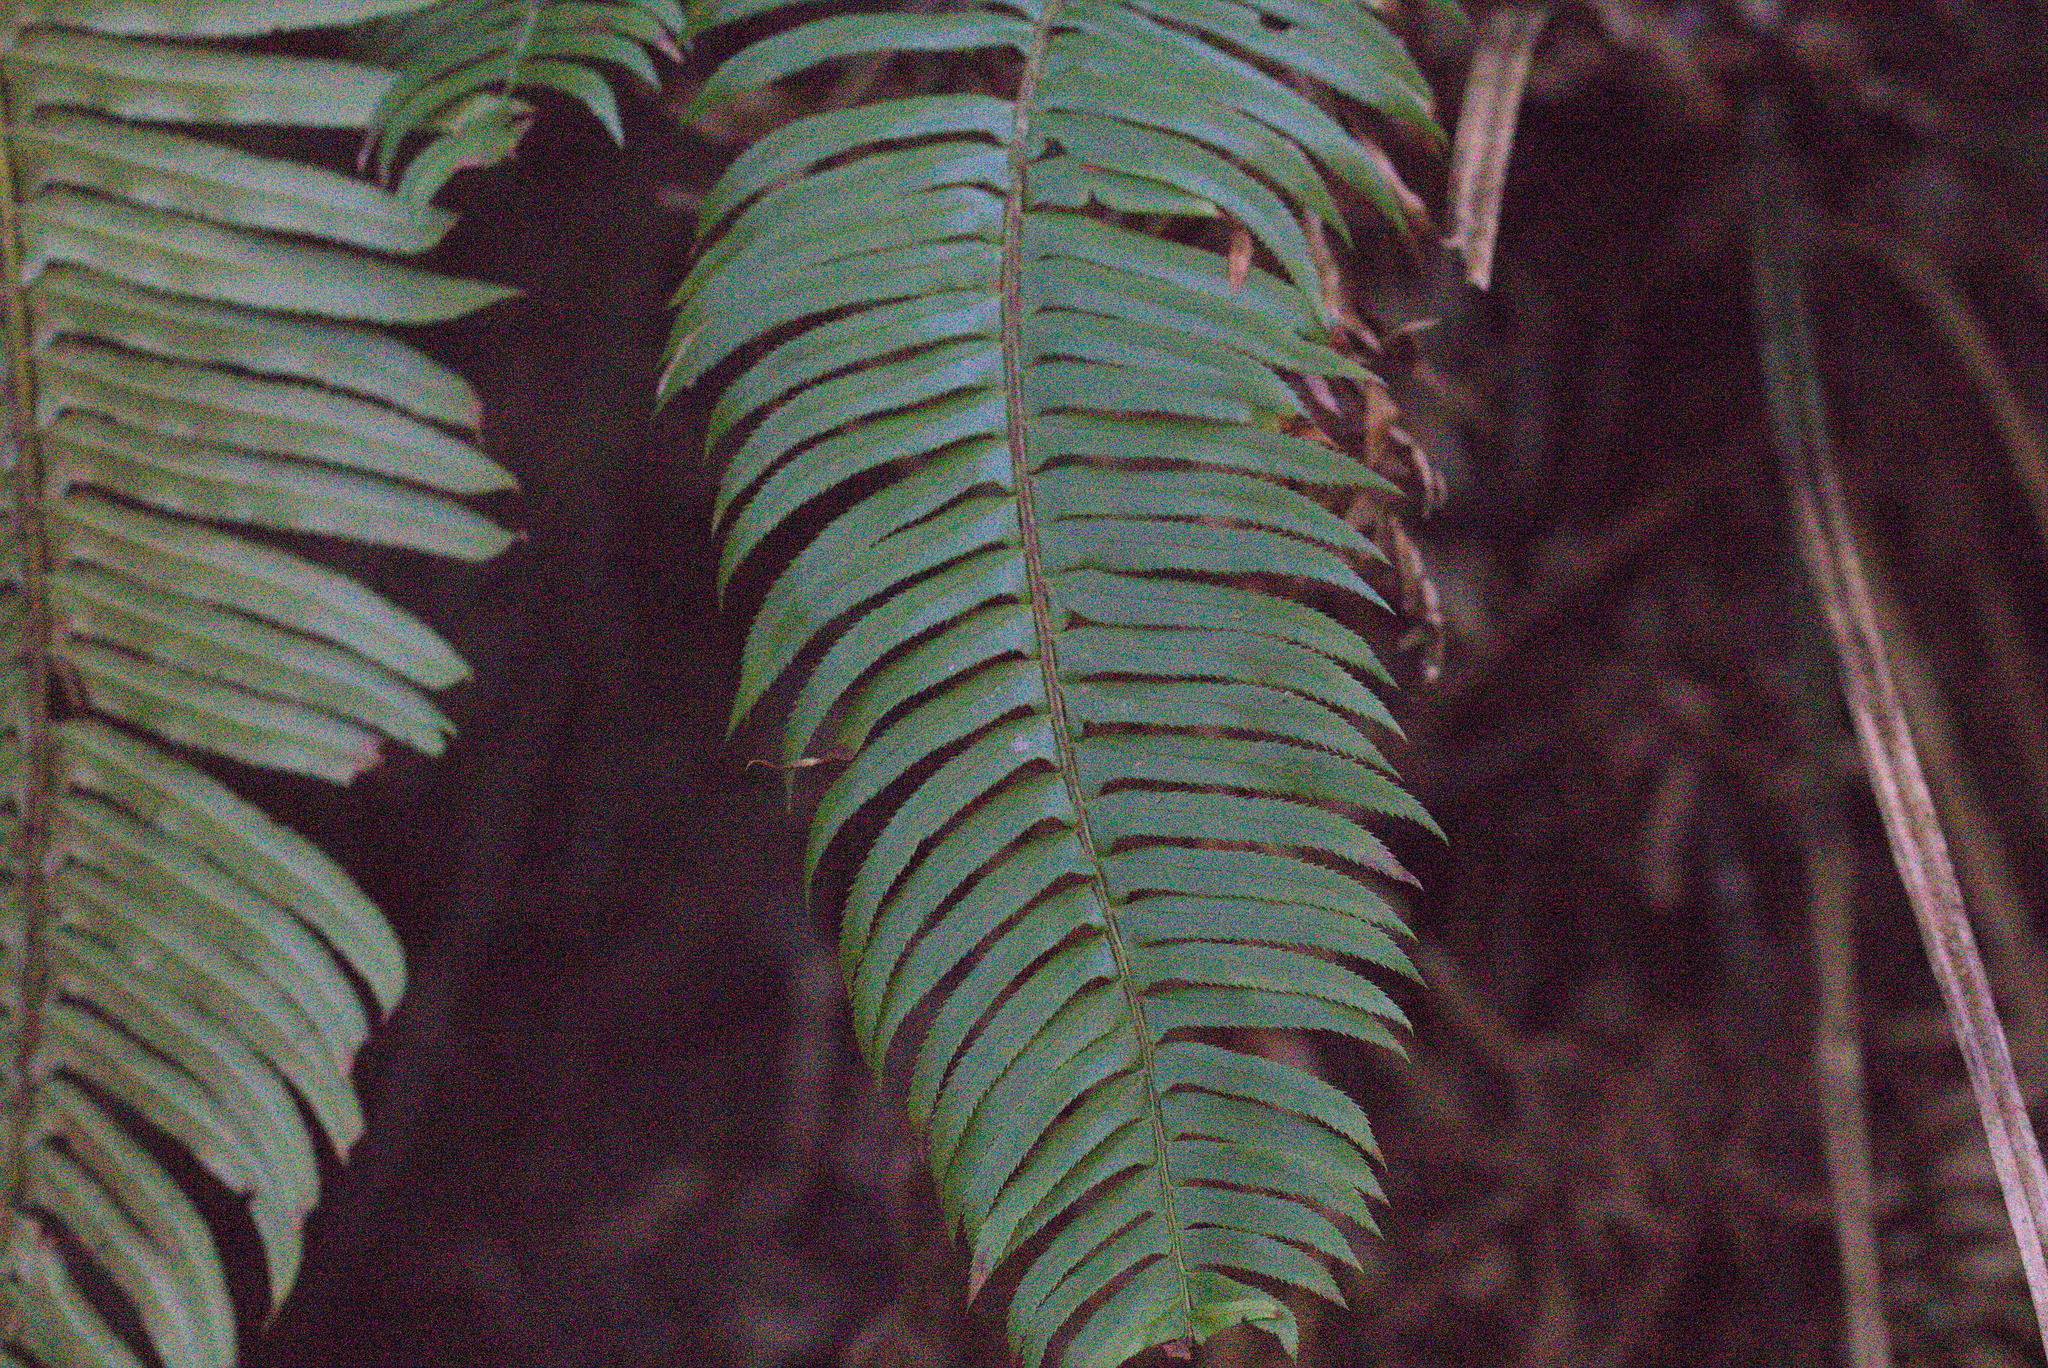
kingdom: Plantae
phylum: Tracheophyta
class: Polypodiopsida
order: Polypodiales
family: Dryopteridaceae
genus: Polystichum
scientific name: Polystichum munitum
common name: Western sword-fern
